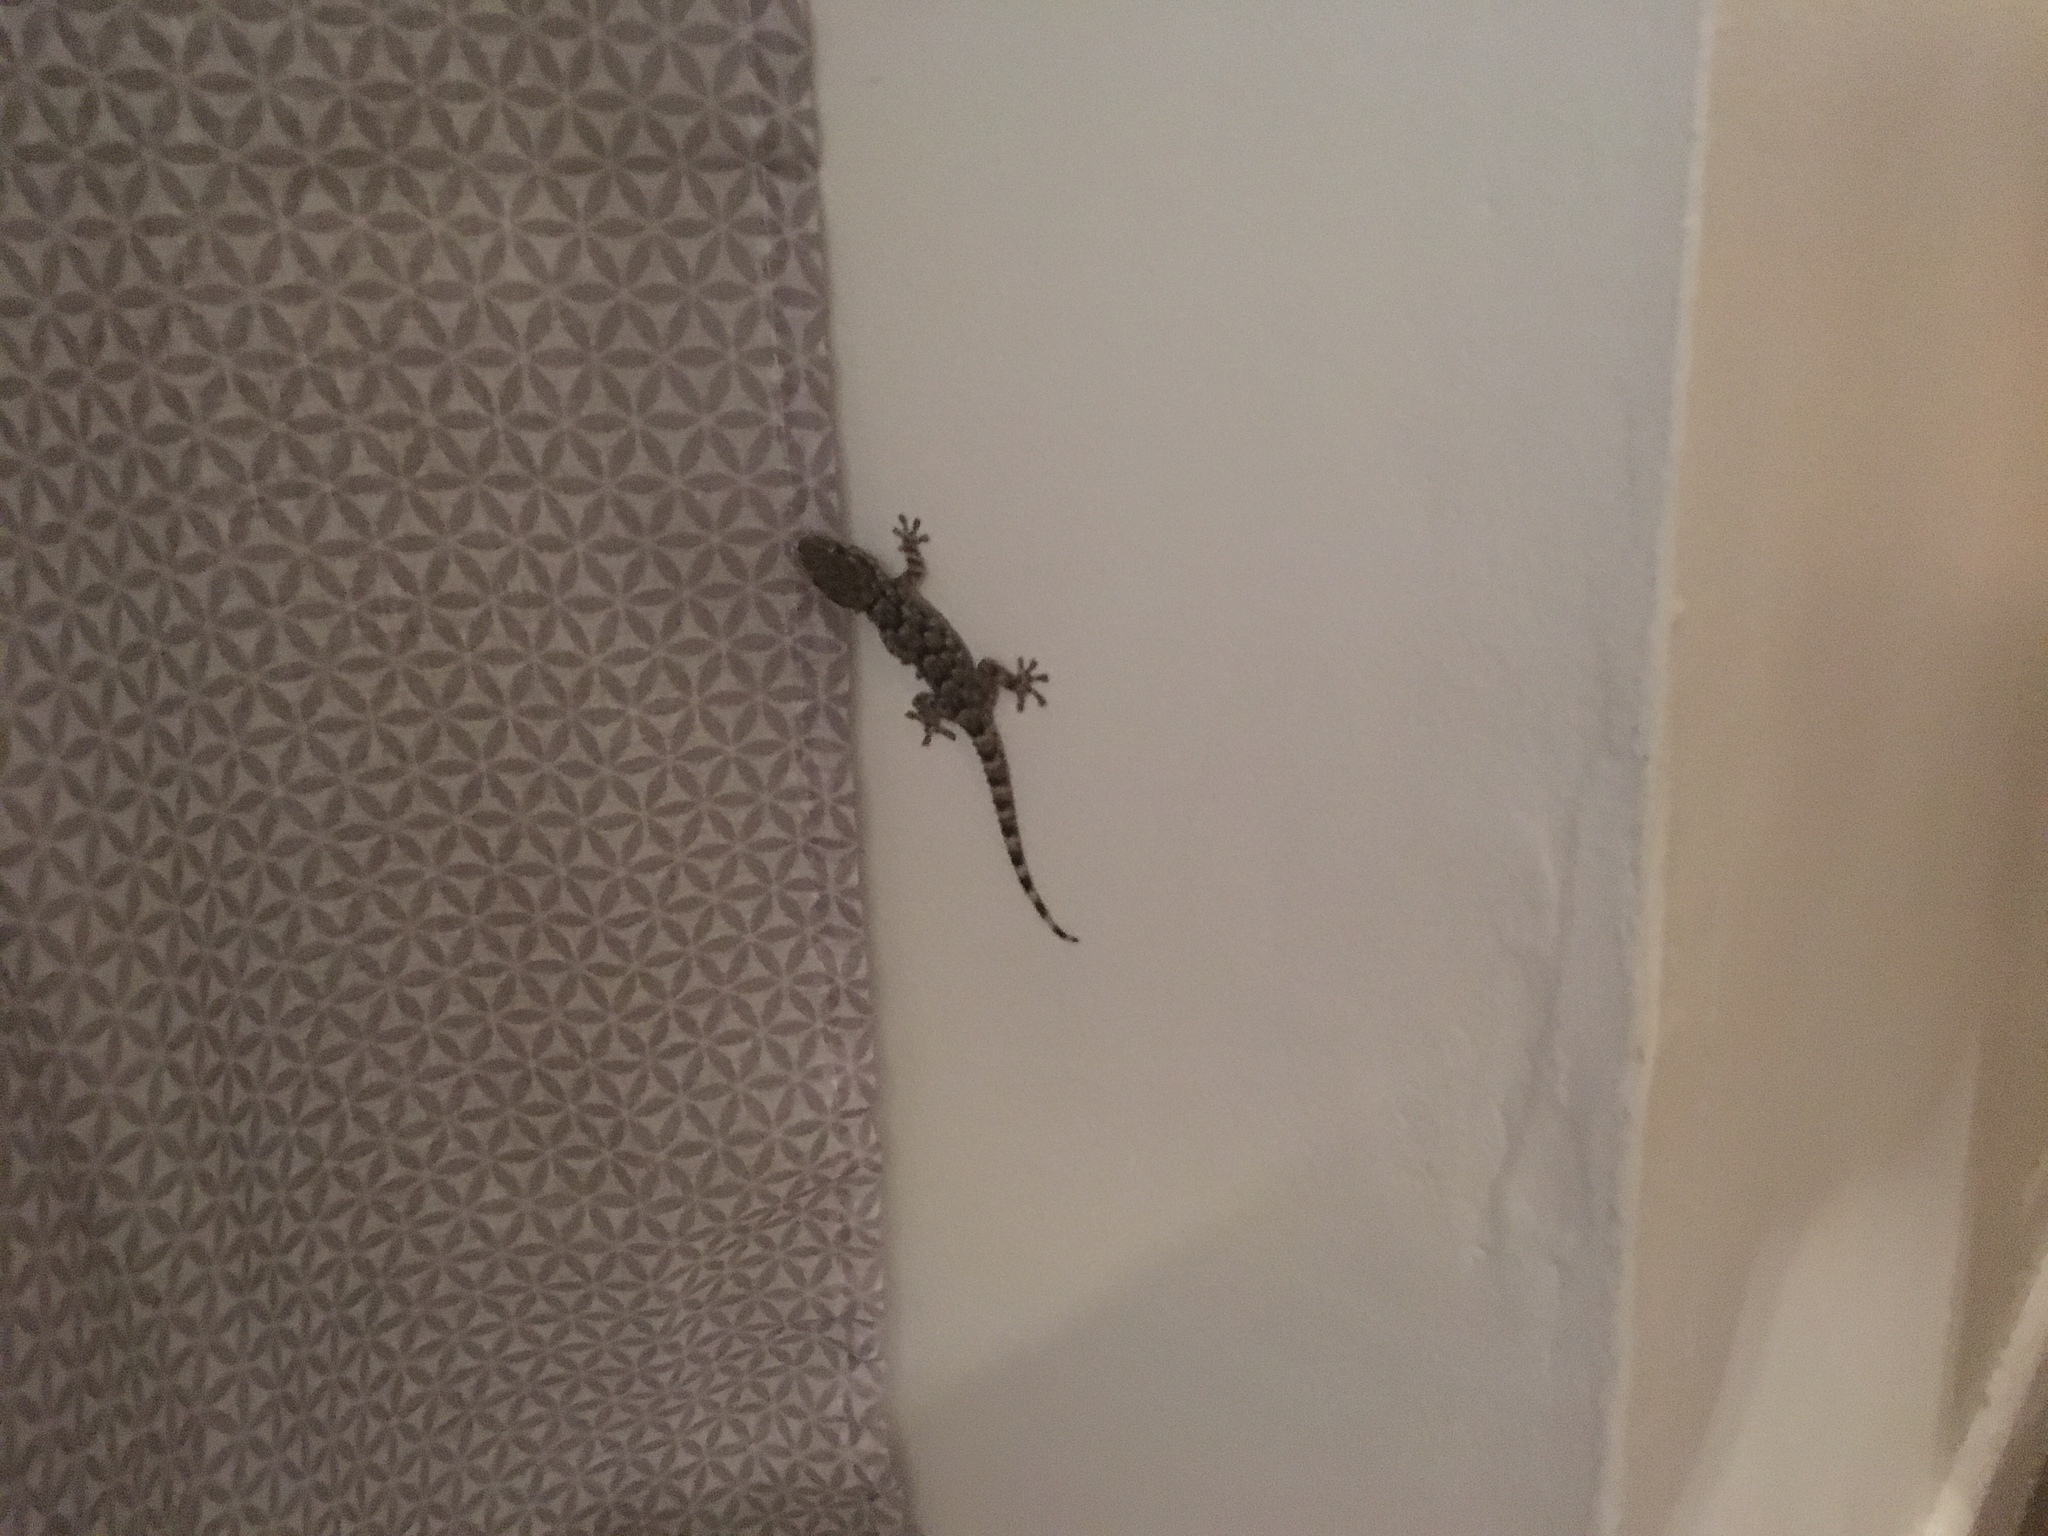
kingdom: Animalia
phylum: Chordata
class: Squamata
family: Phyllodactylidae
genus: Tarentola
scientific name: Tarentola mauritanica
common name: Moorish gecko
